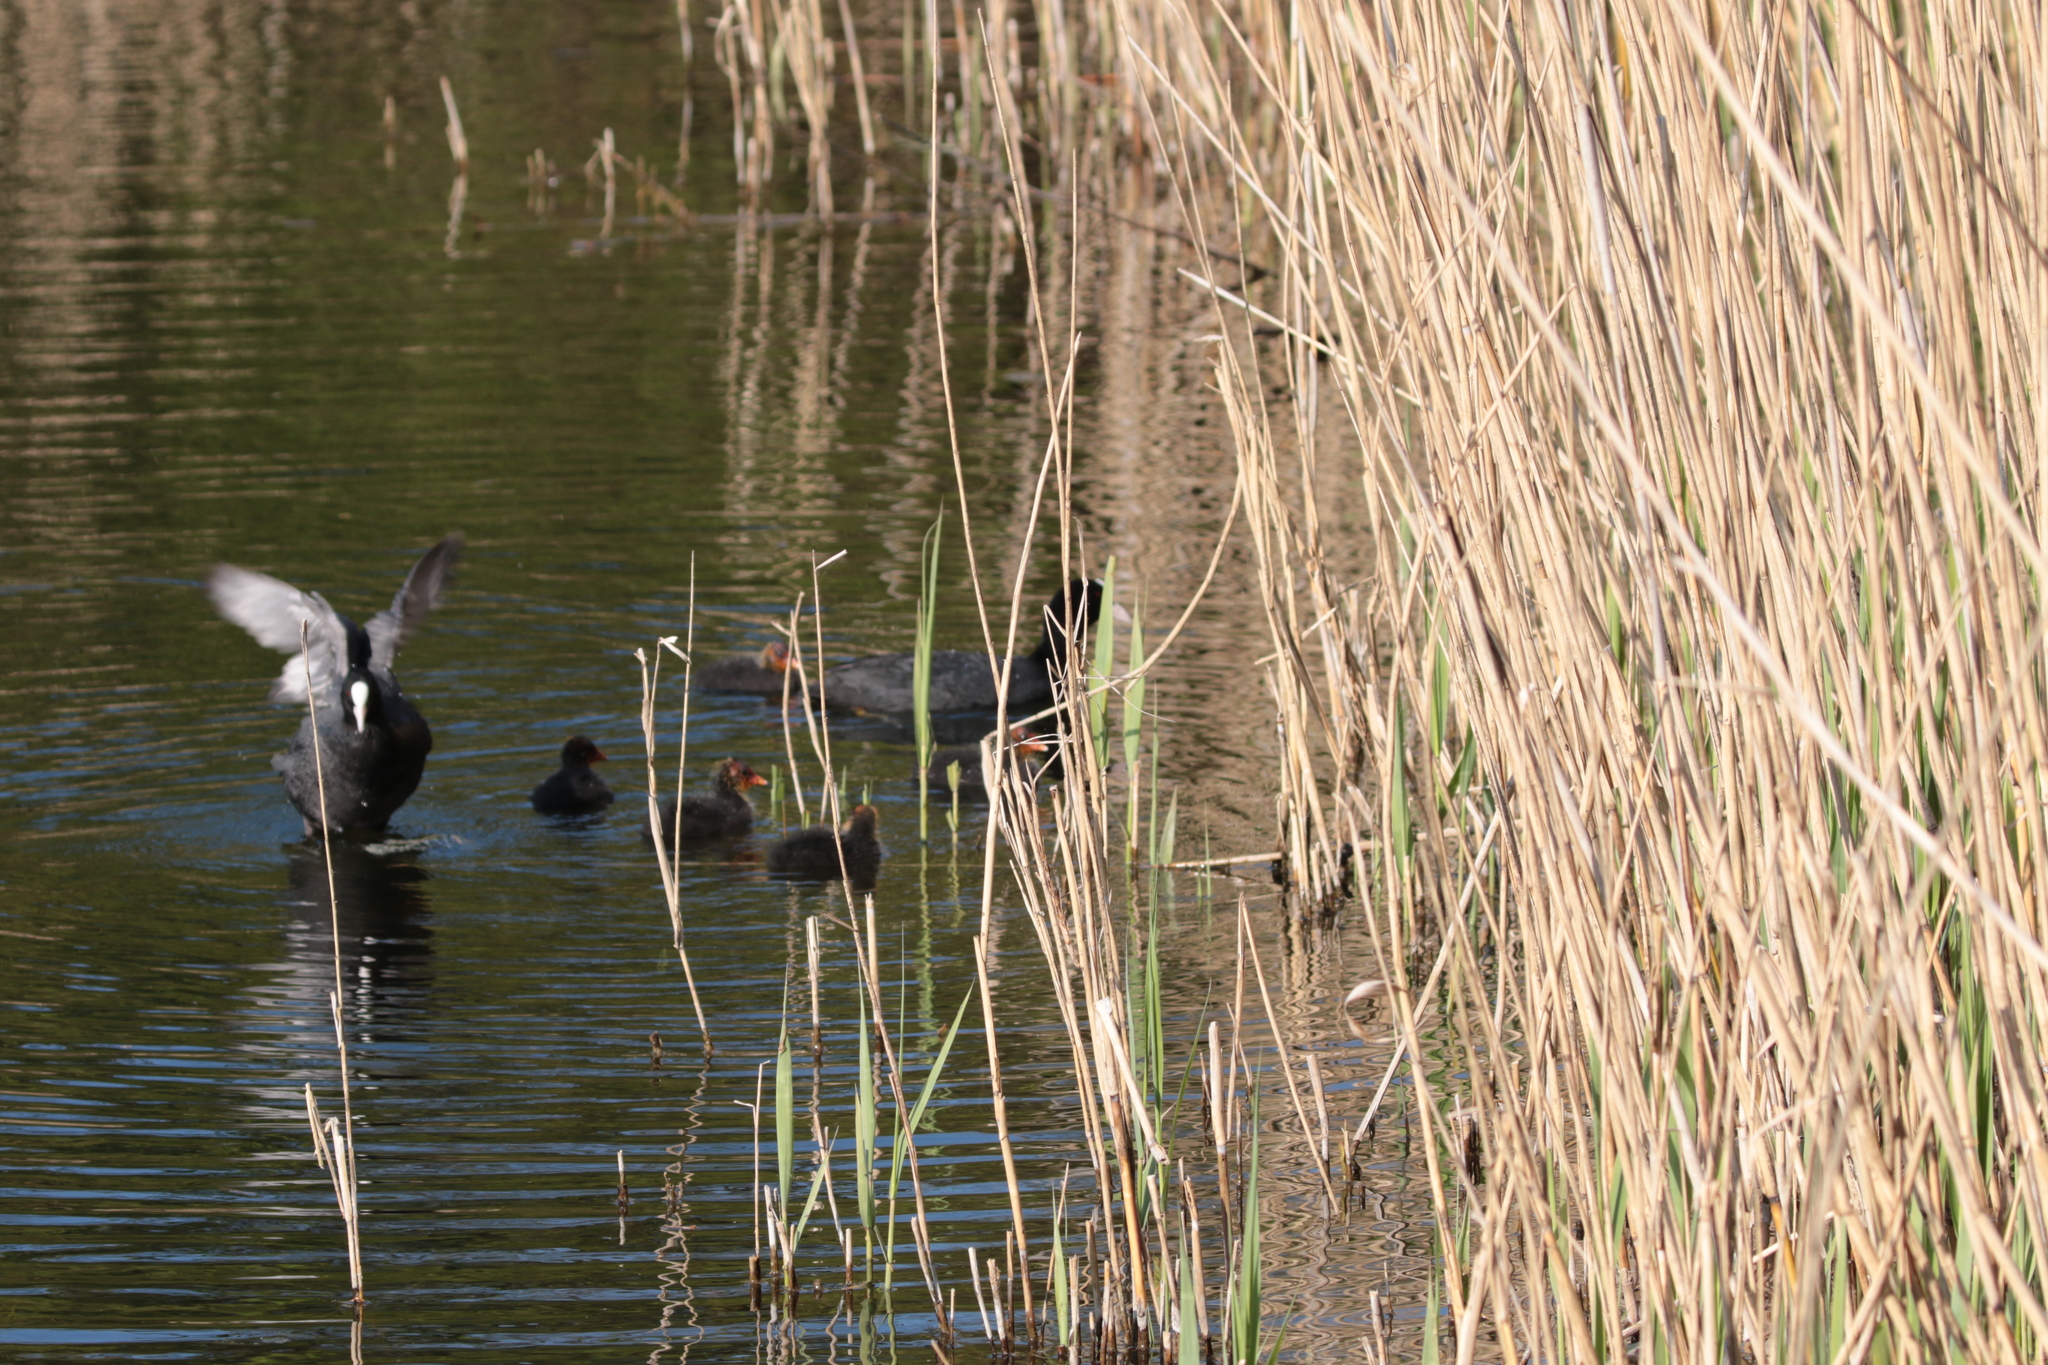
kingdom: Animalia
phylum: Chordata
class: Aves
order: Gruiformes
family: Rallidae
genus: Fulica
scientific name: Fulica atra
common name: Eurasian coot
